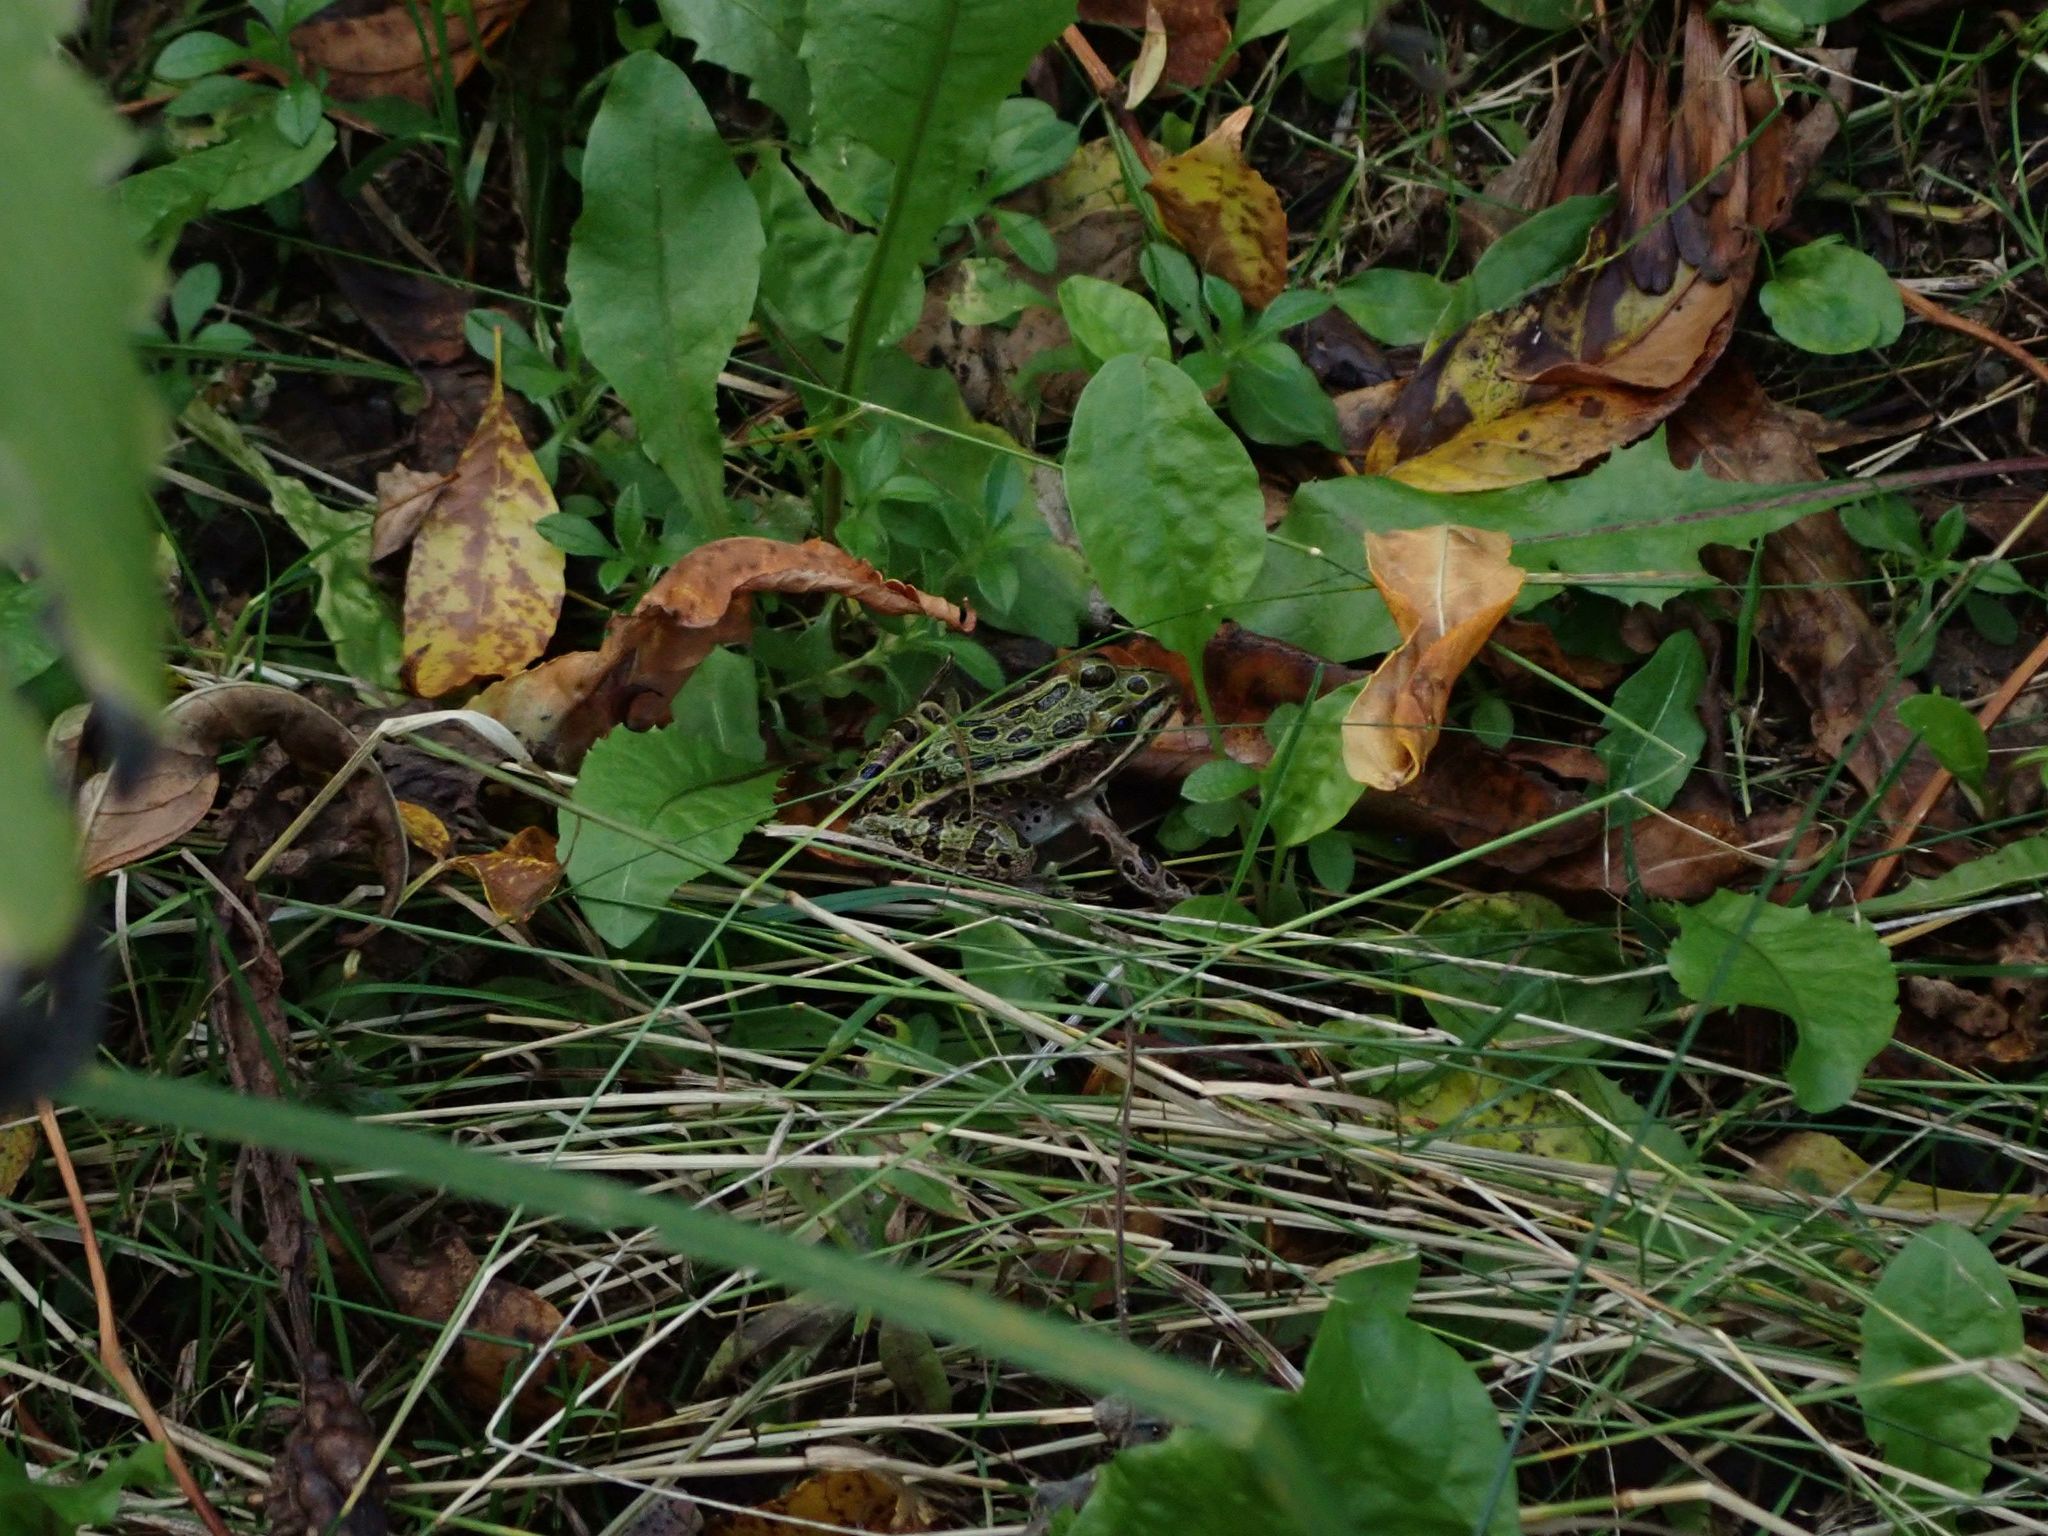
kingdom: Animalia
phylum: Chordata
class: Amphibia
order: Anura
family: Ranidae
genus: Lithobates
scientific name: Lithobates pipiens
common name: Northern leopard frog
